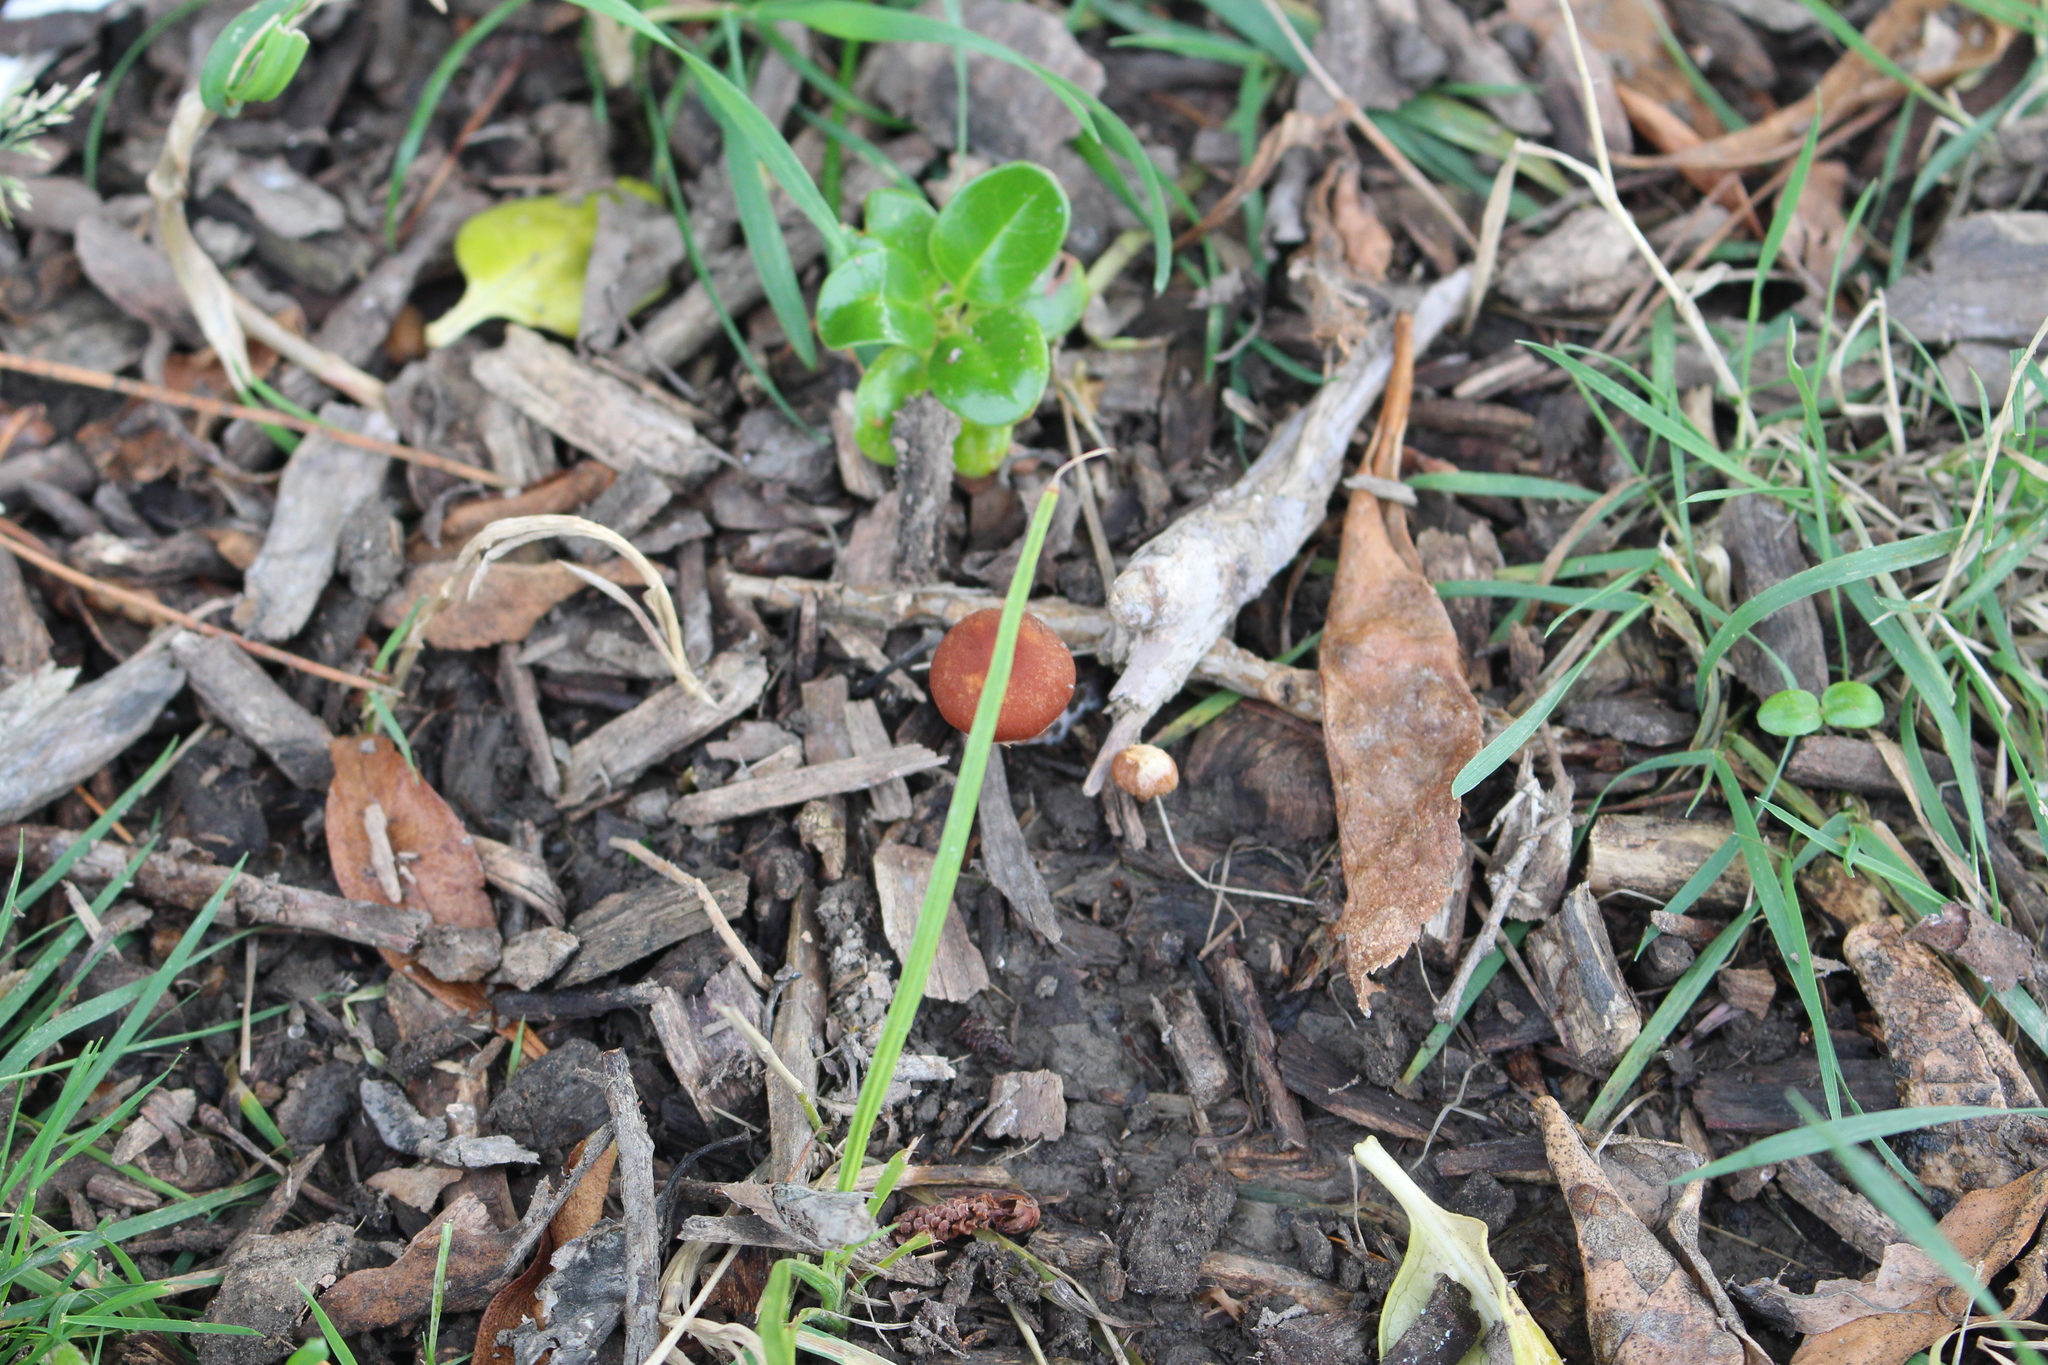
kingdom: Fungi
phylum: Basidiomycota
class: Agaricomycetes
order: Agaricales
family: Tubariaceae
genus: Tubaria
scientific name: Tubaria furfuracea
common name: Scurfy twiglet
